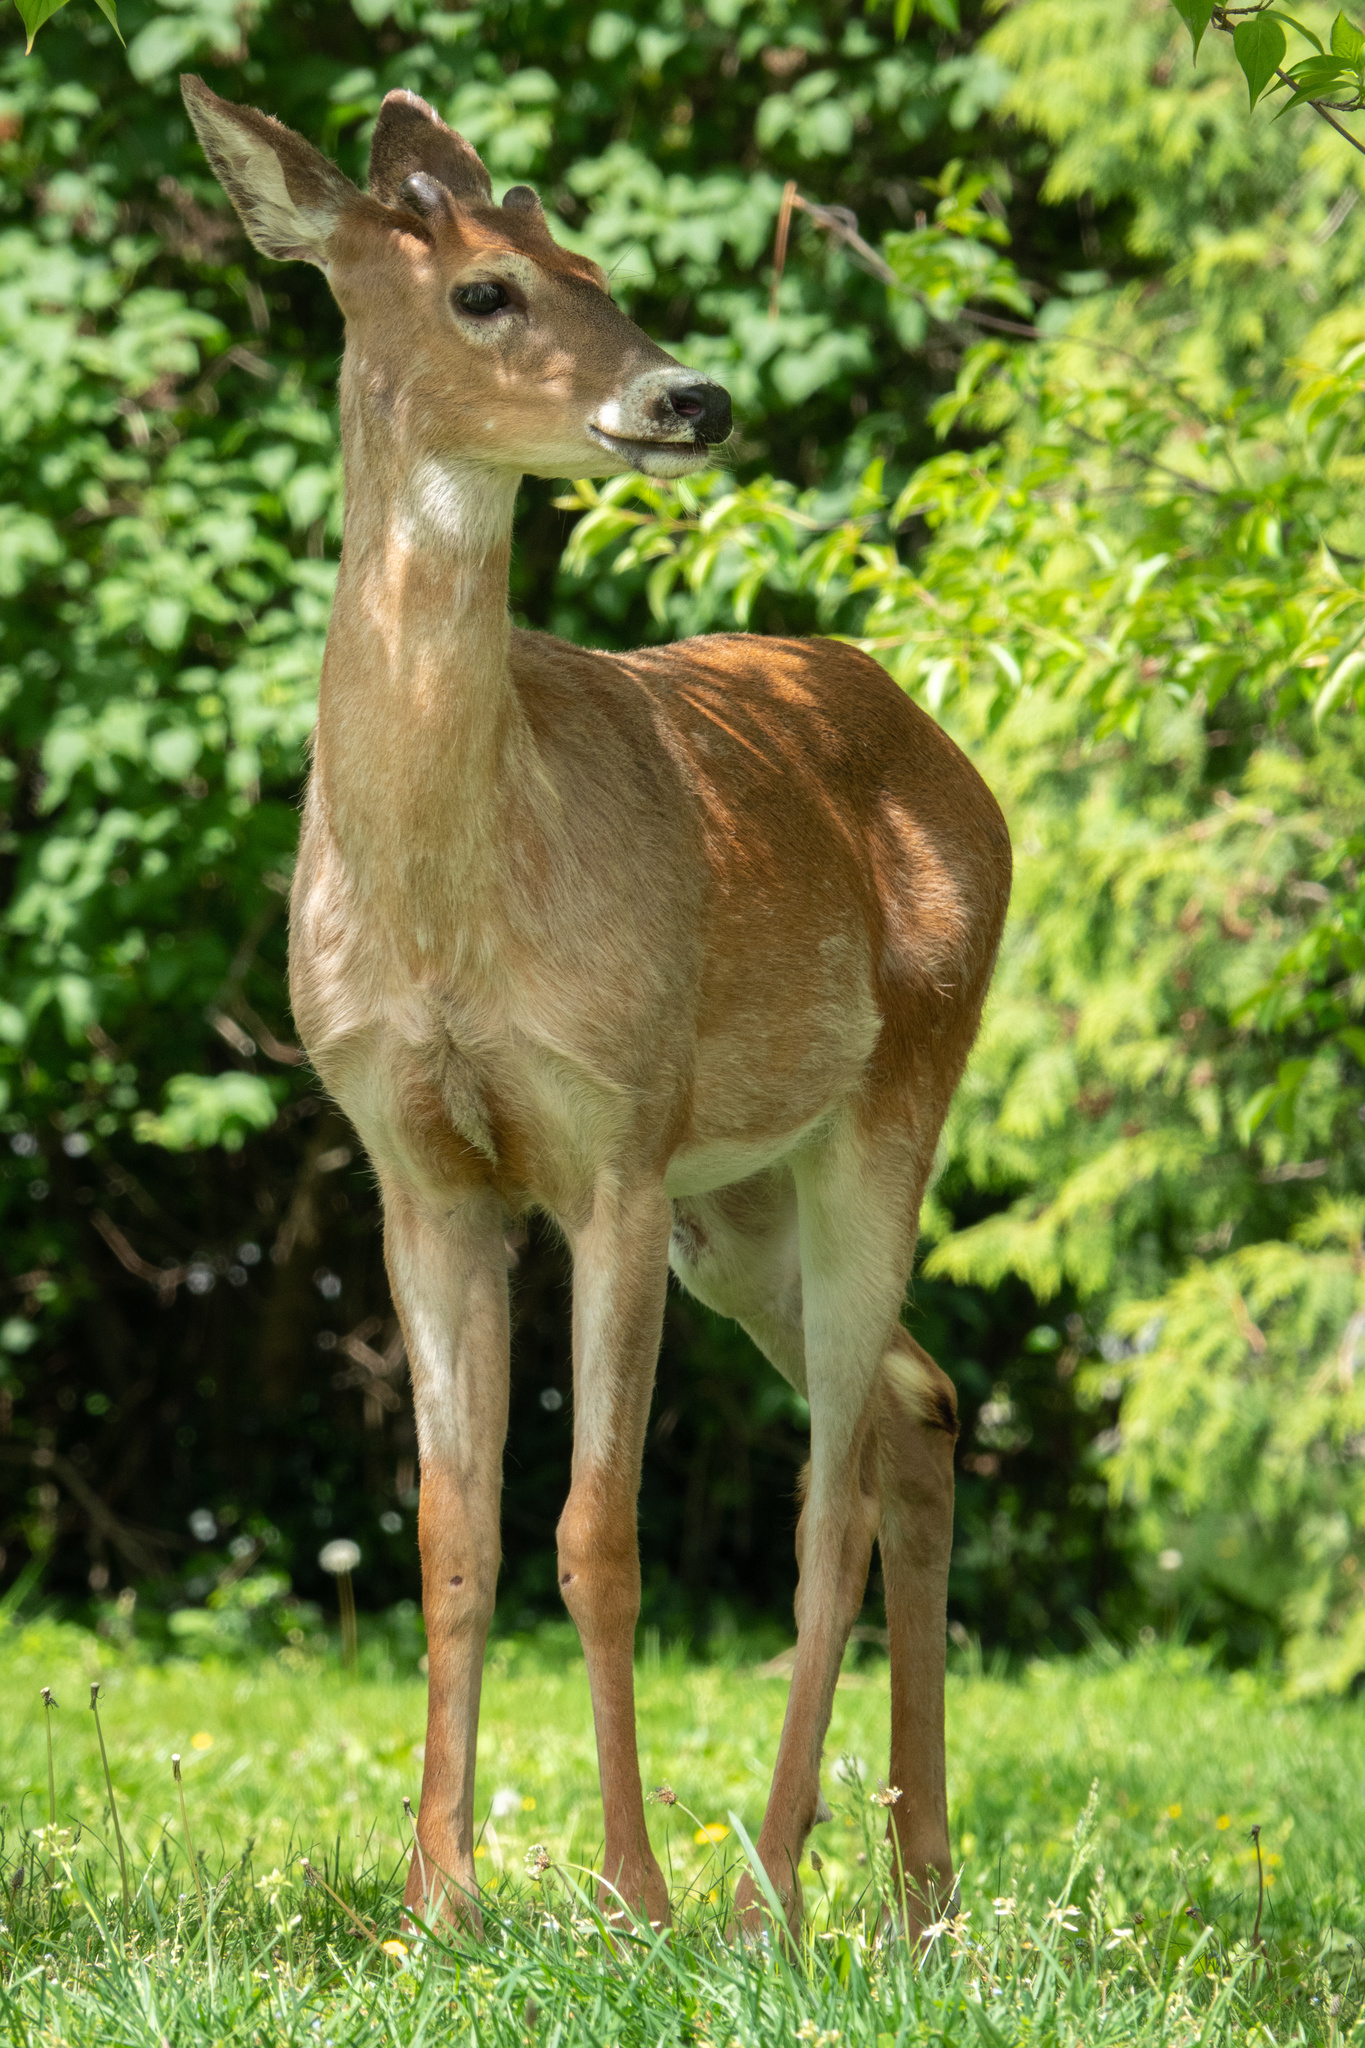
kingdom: Animalia
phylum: Chordata
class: Mammalia
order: Artiodactyla
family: Cervidae
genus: Odocoileus
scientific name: Odocoileus virginianus
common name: White-tailed deer
